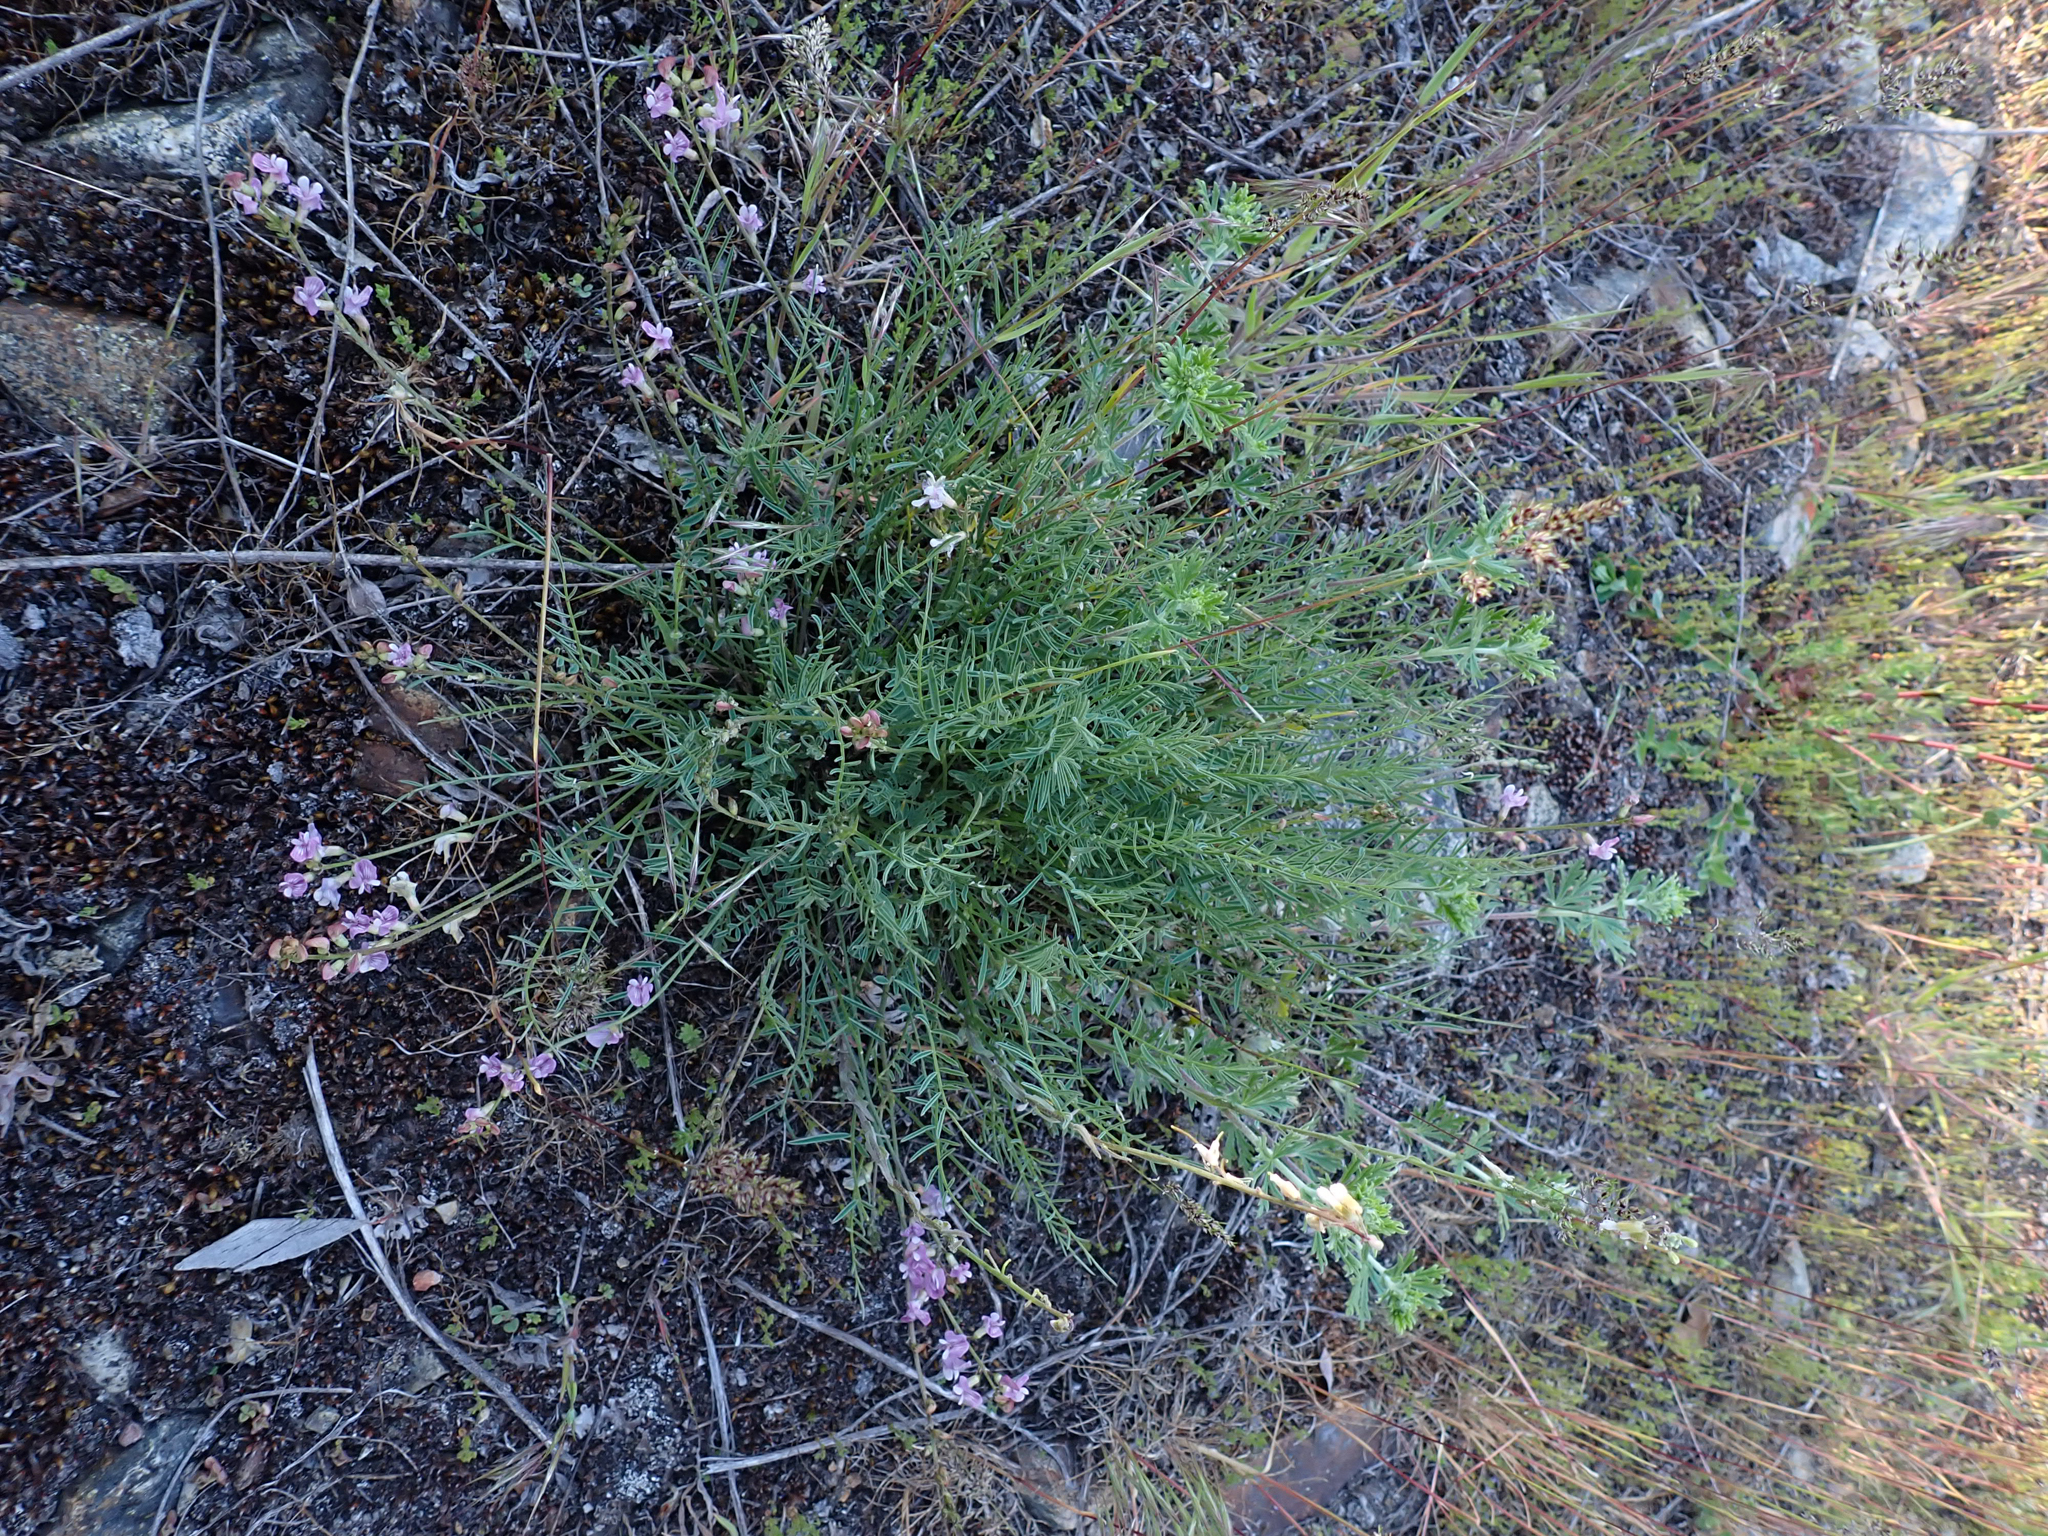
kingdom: Plantae
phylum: Tracheophyta
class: Magnoliopsida
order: Fabales
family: Fabaceae
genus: Astragalus
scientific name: Astragalus miser
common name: Timber milkvetch
